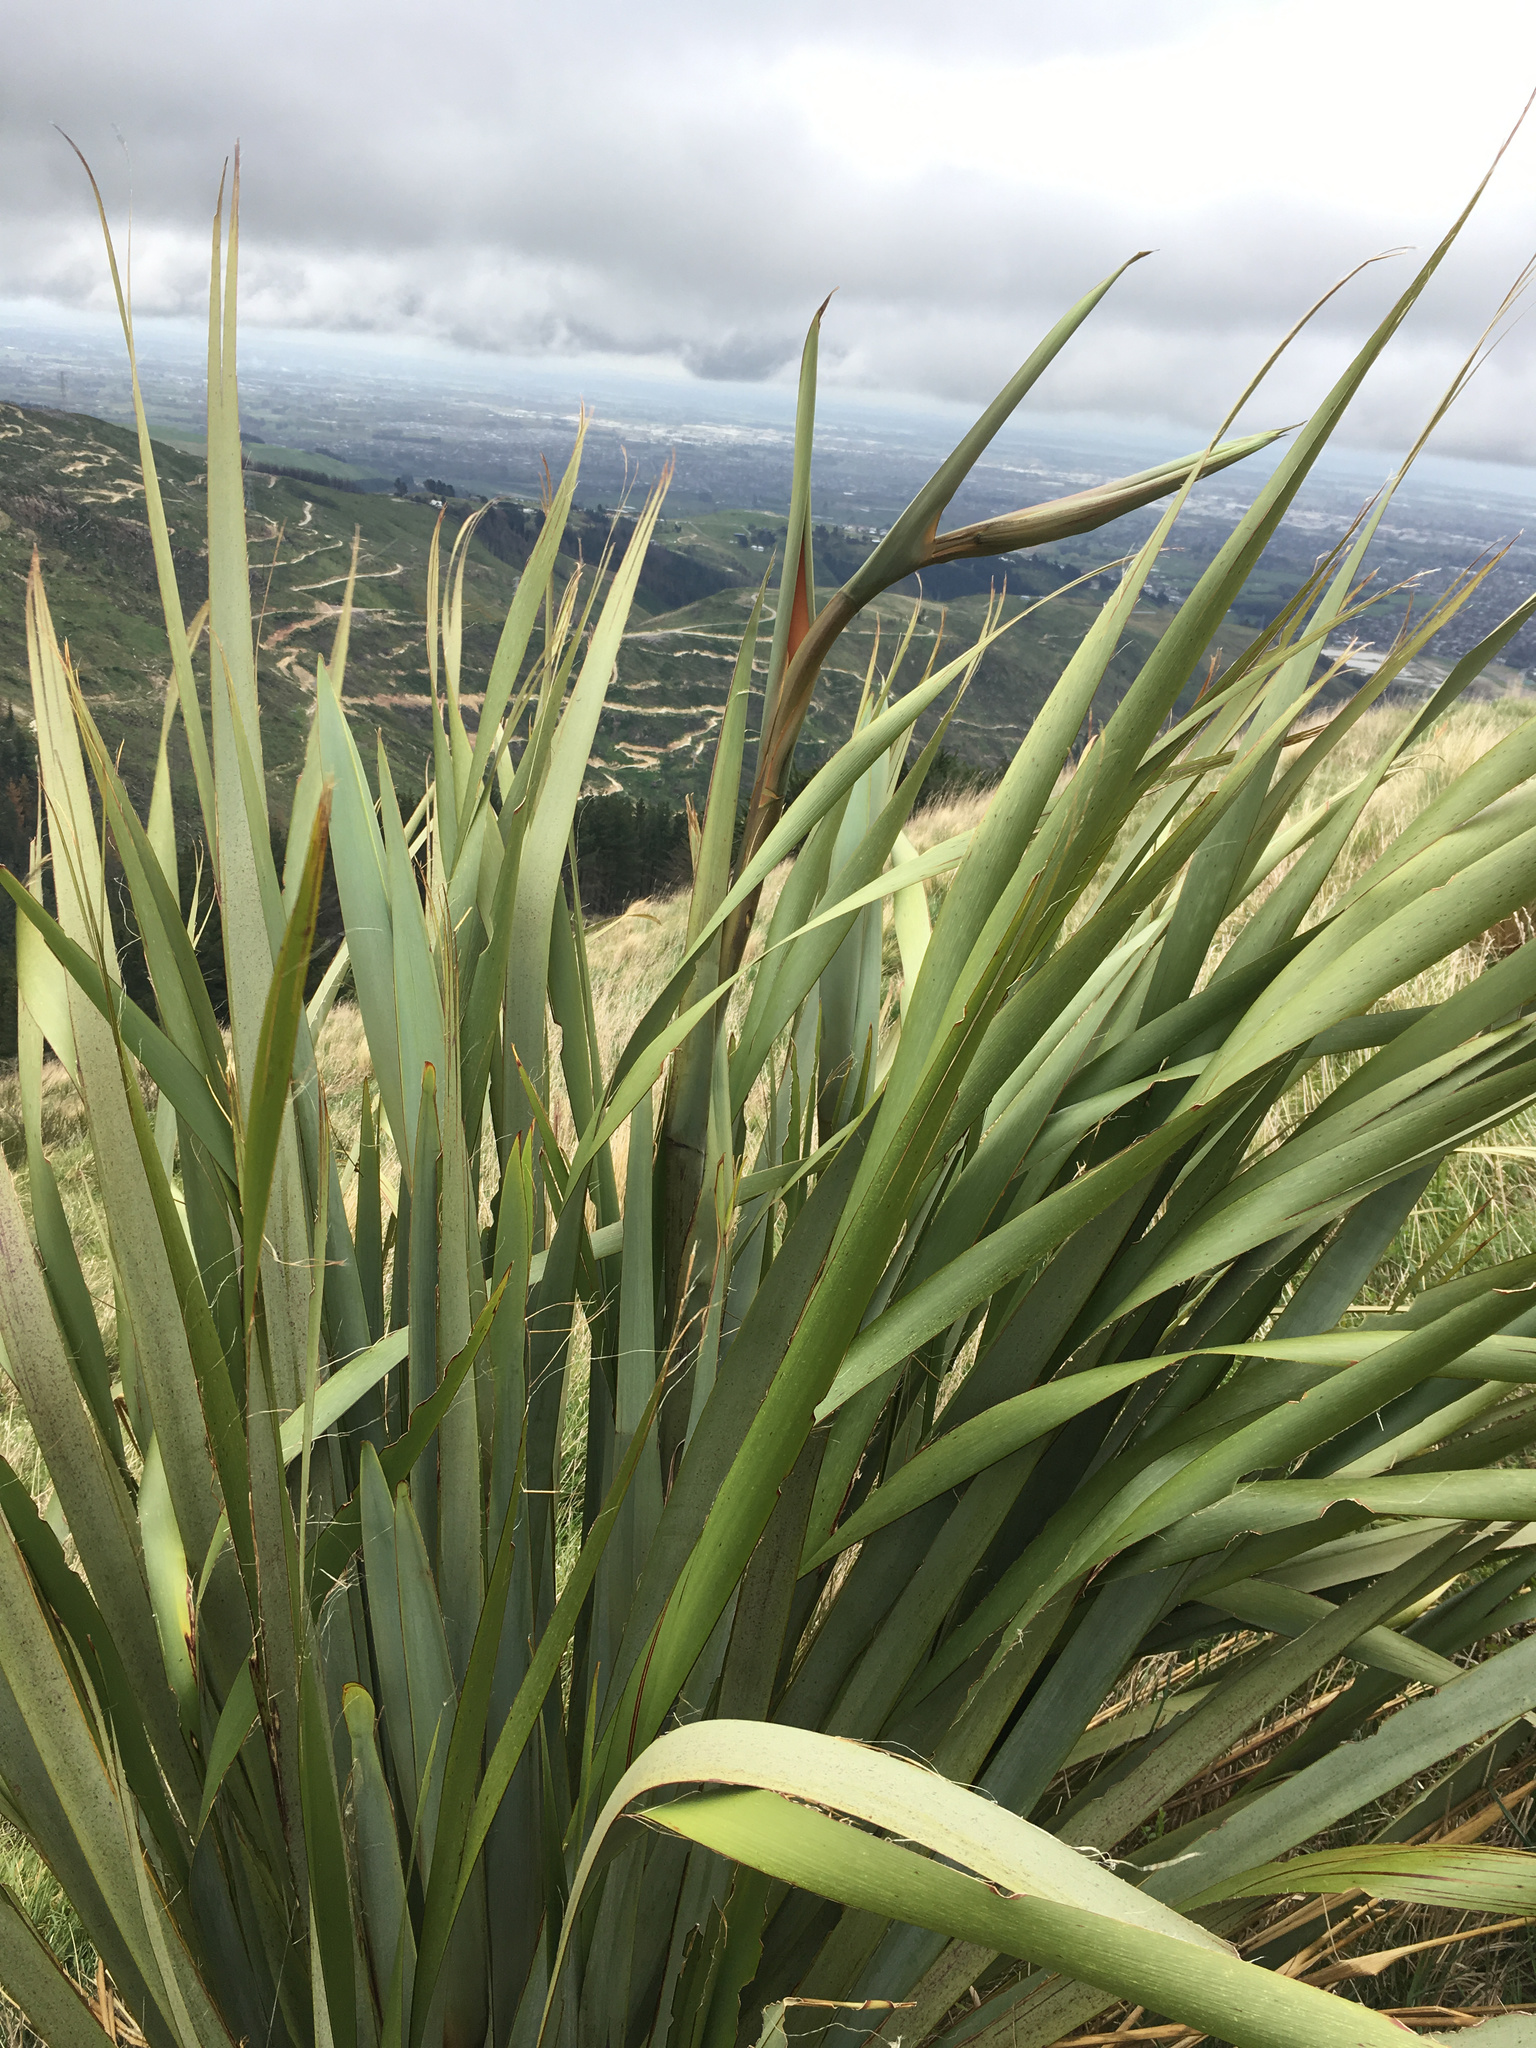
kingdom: Plantae
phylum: Tracheophyta
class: Liliopsida
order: Asparagales
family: Asphodelaceae
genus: Phormium
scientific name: Phormium tenax
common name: New zealand flax
